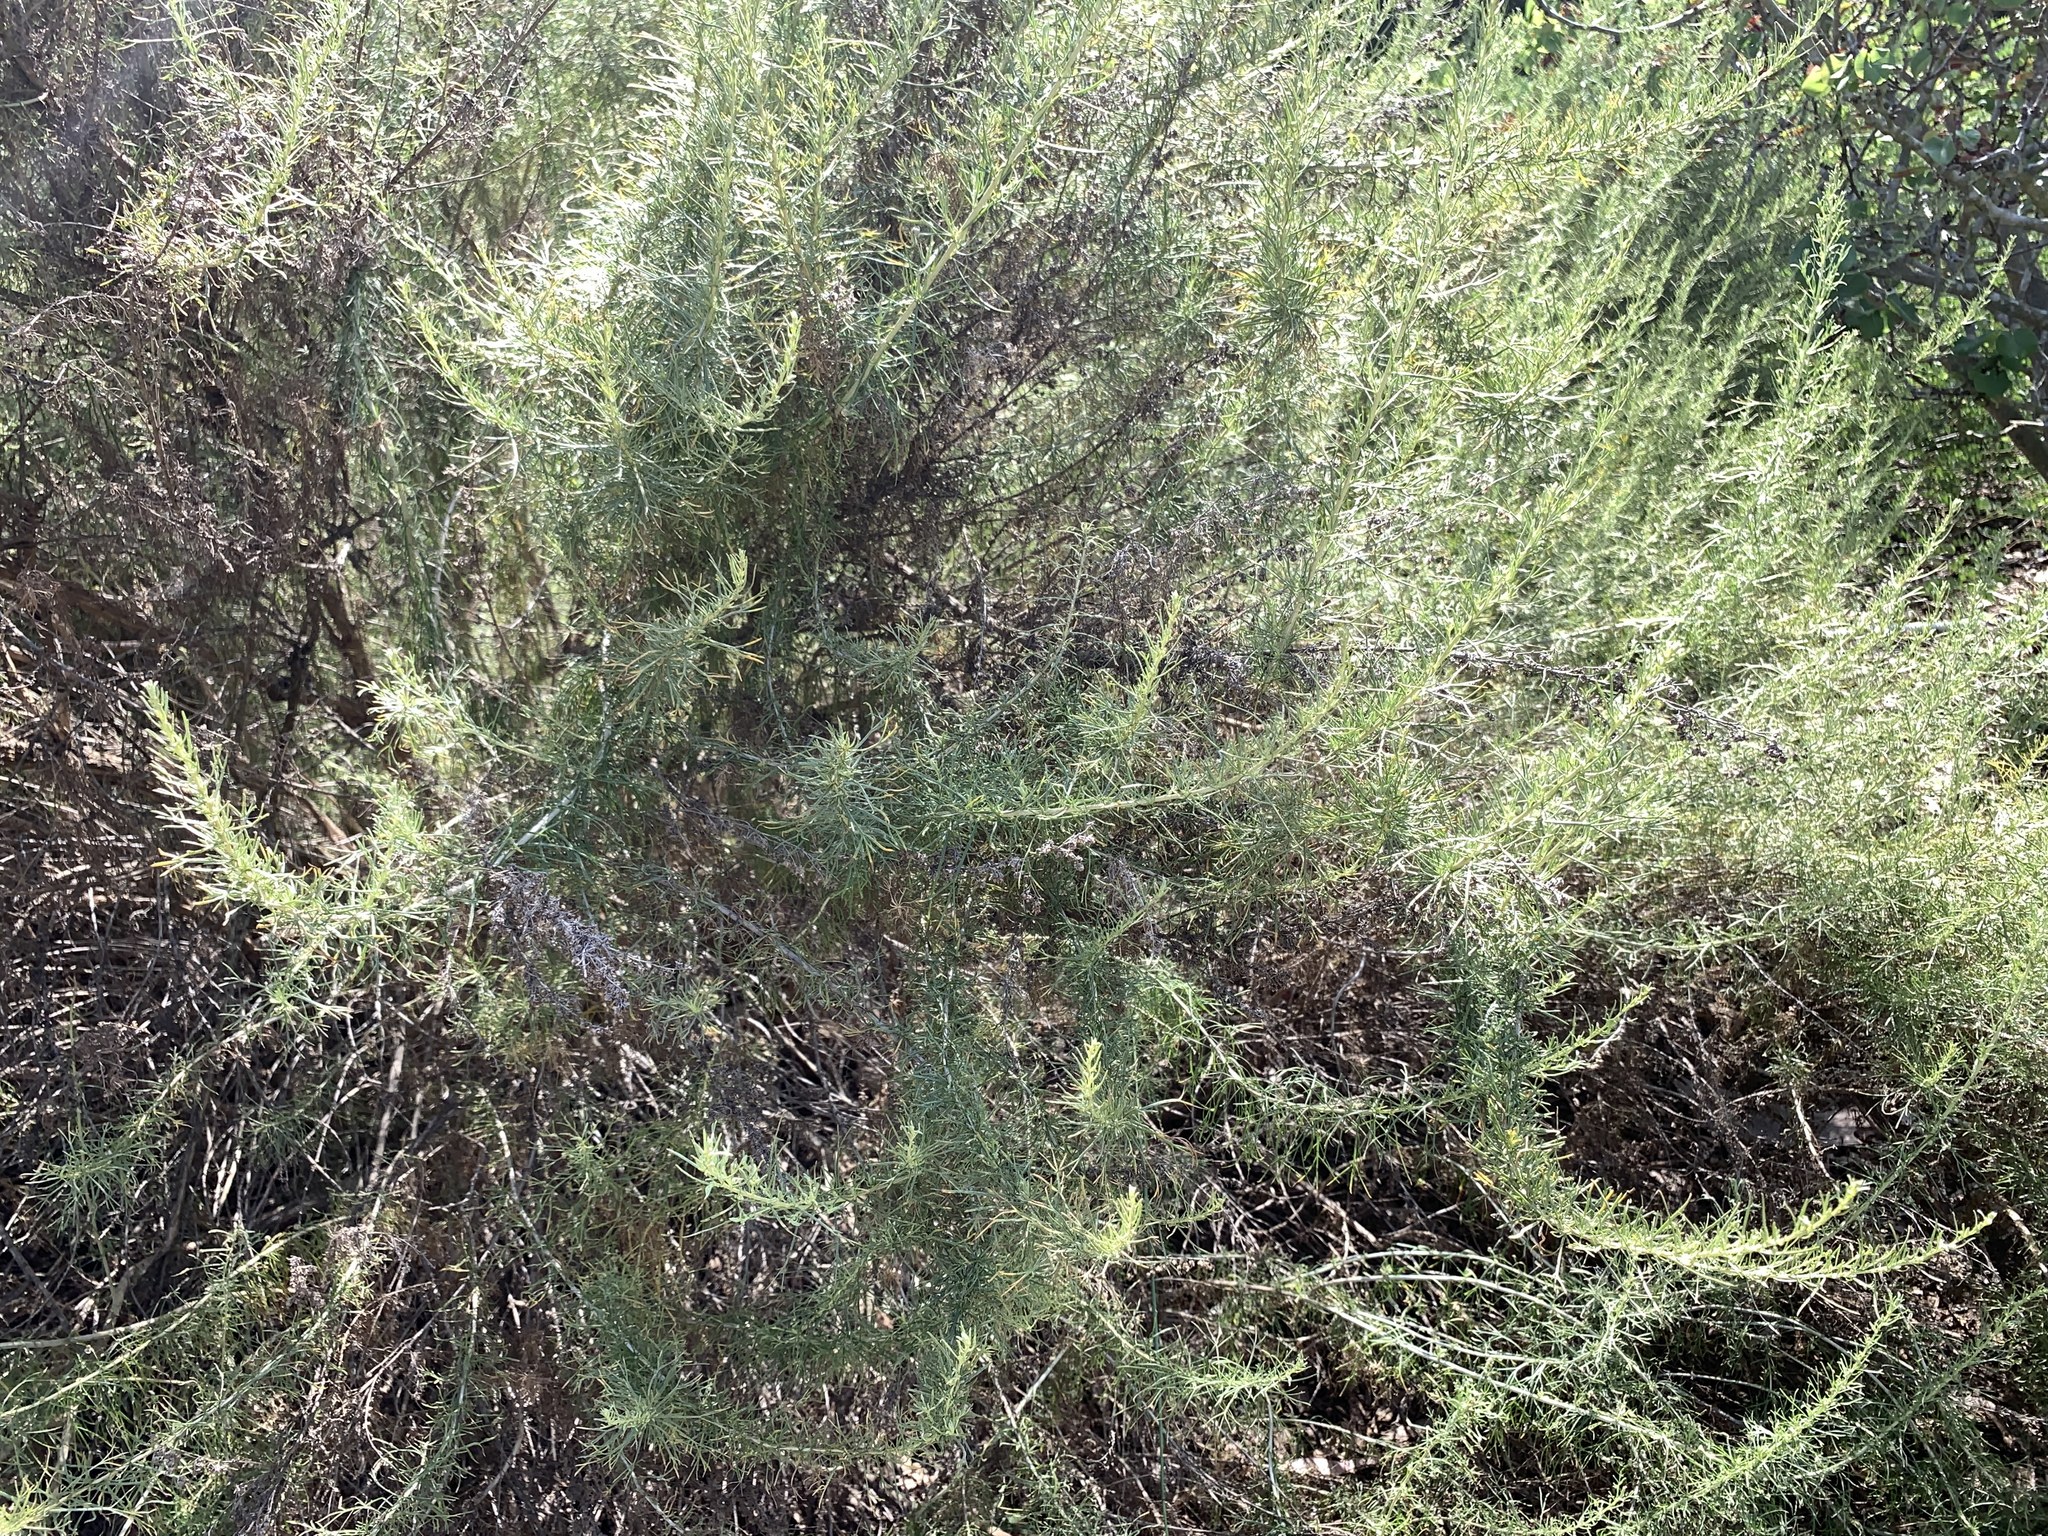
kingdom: Plantae
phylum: Tracheophyta
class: Magnoliopsida
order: Asterales
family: Asteraceae
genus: Artemisia
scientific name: Artemisia californica
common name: California sagebrush
